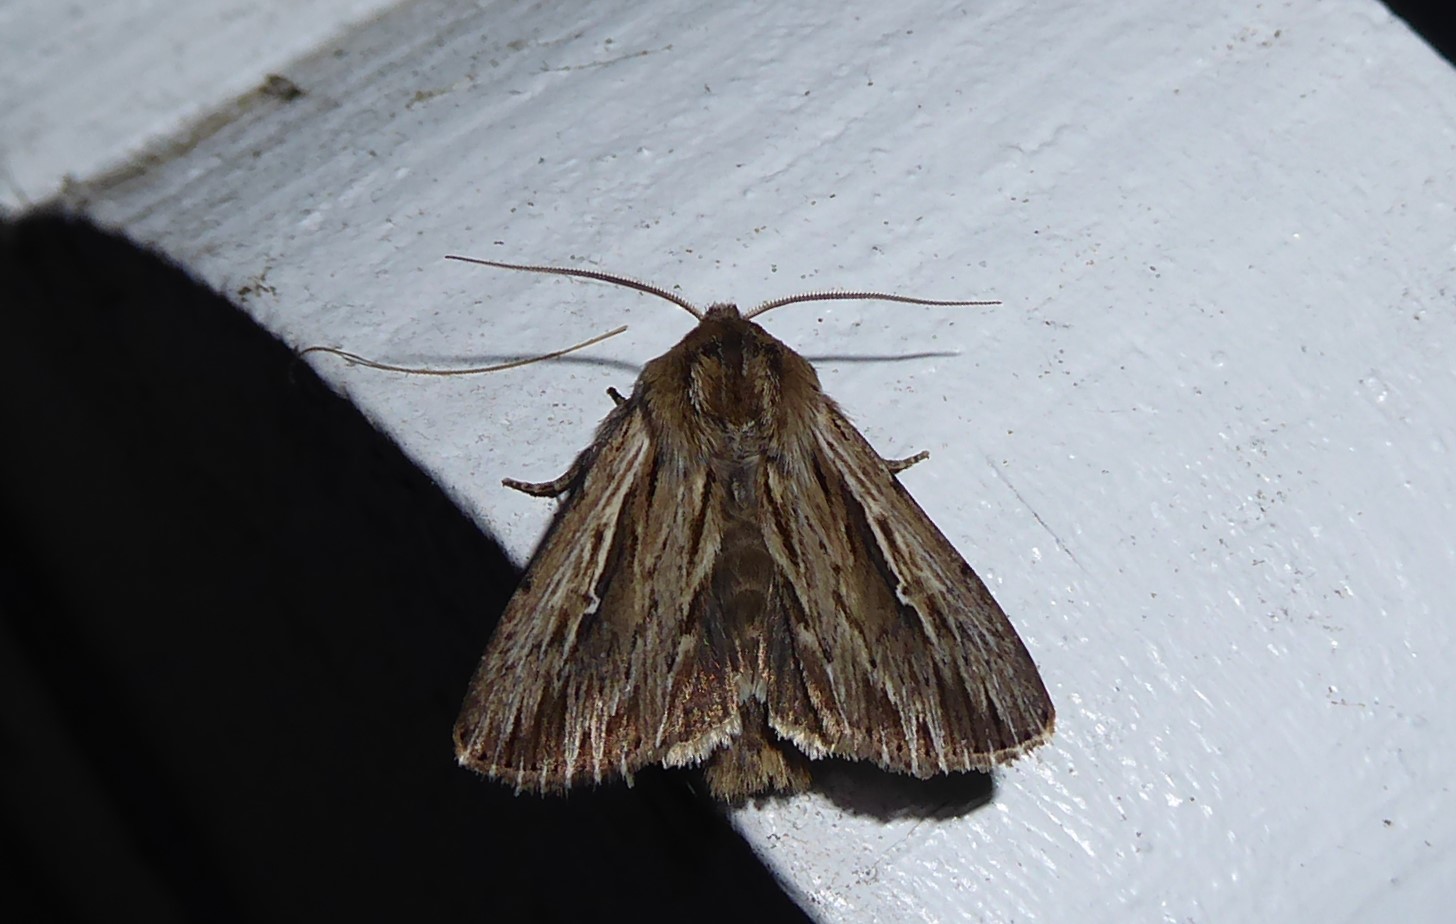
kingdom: Animalia
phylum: Arthropoda
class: Insecta
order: Lepidoptera
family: Noctuidae
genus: Persectania
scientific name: Persectania aversa
